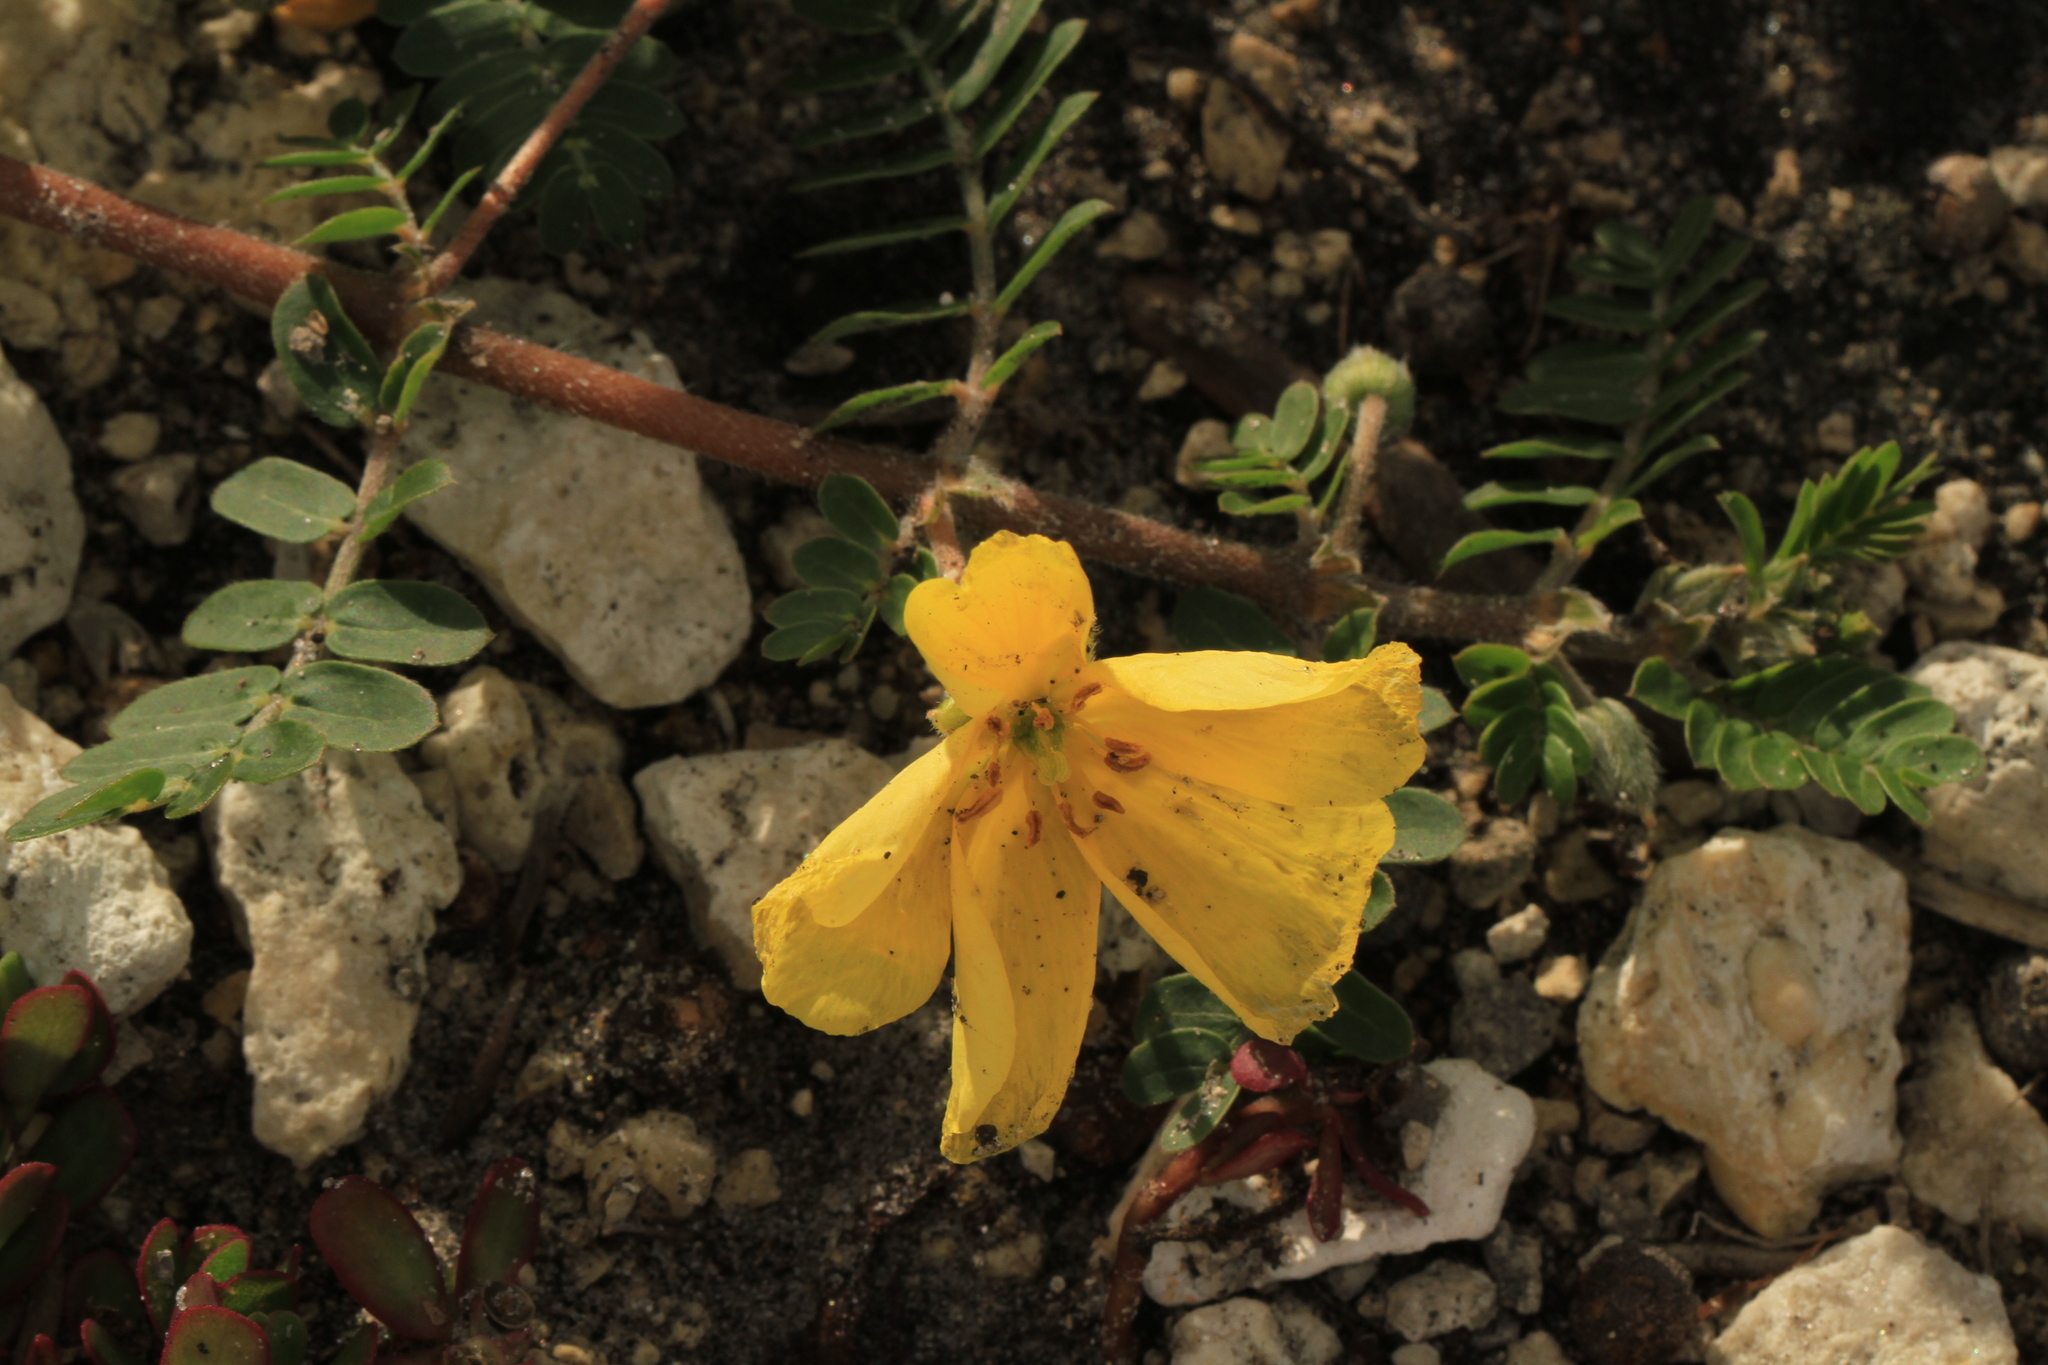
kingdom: Plantae
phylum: Tracheophyta
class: Magnoliopsida
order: Zygophyllales
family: Zygophyllaceae
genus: Tribulus
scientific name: Tribulus cistoides
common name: Jamaican feverplant
